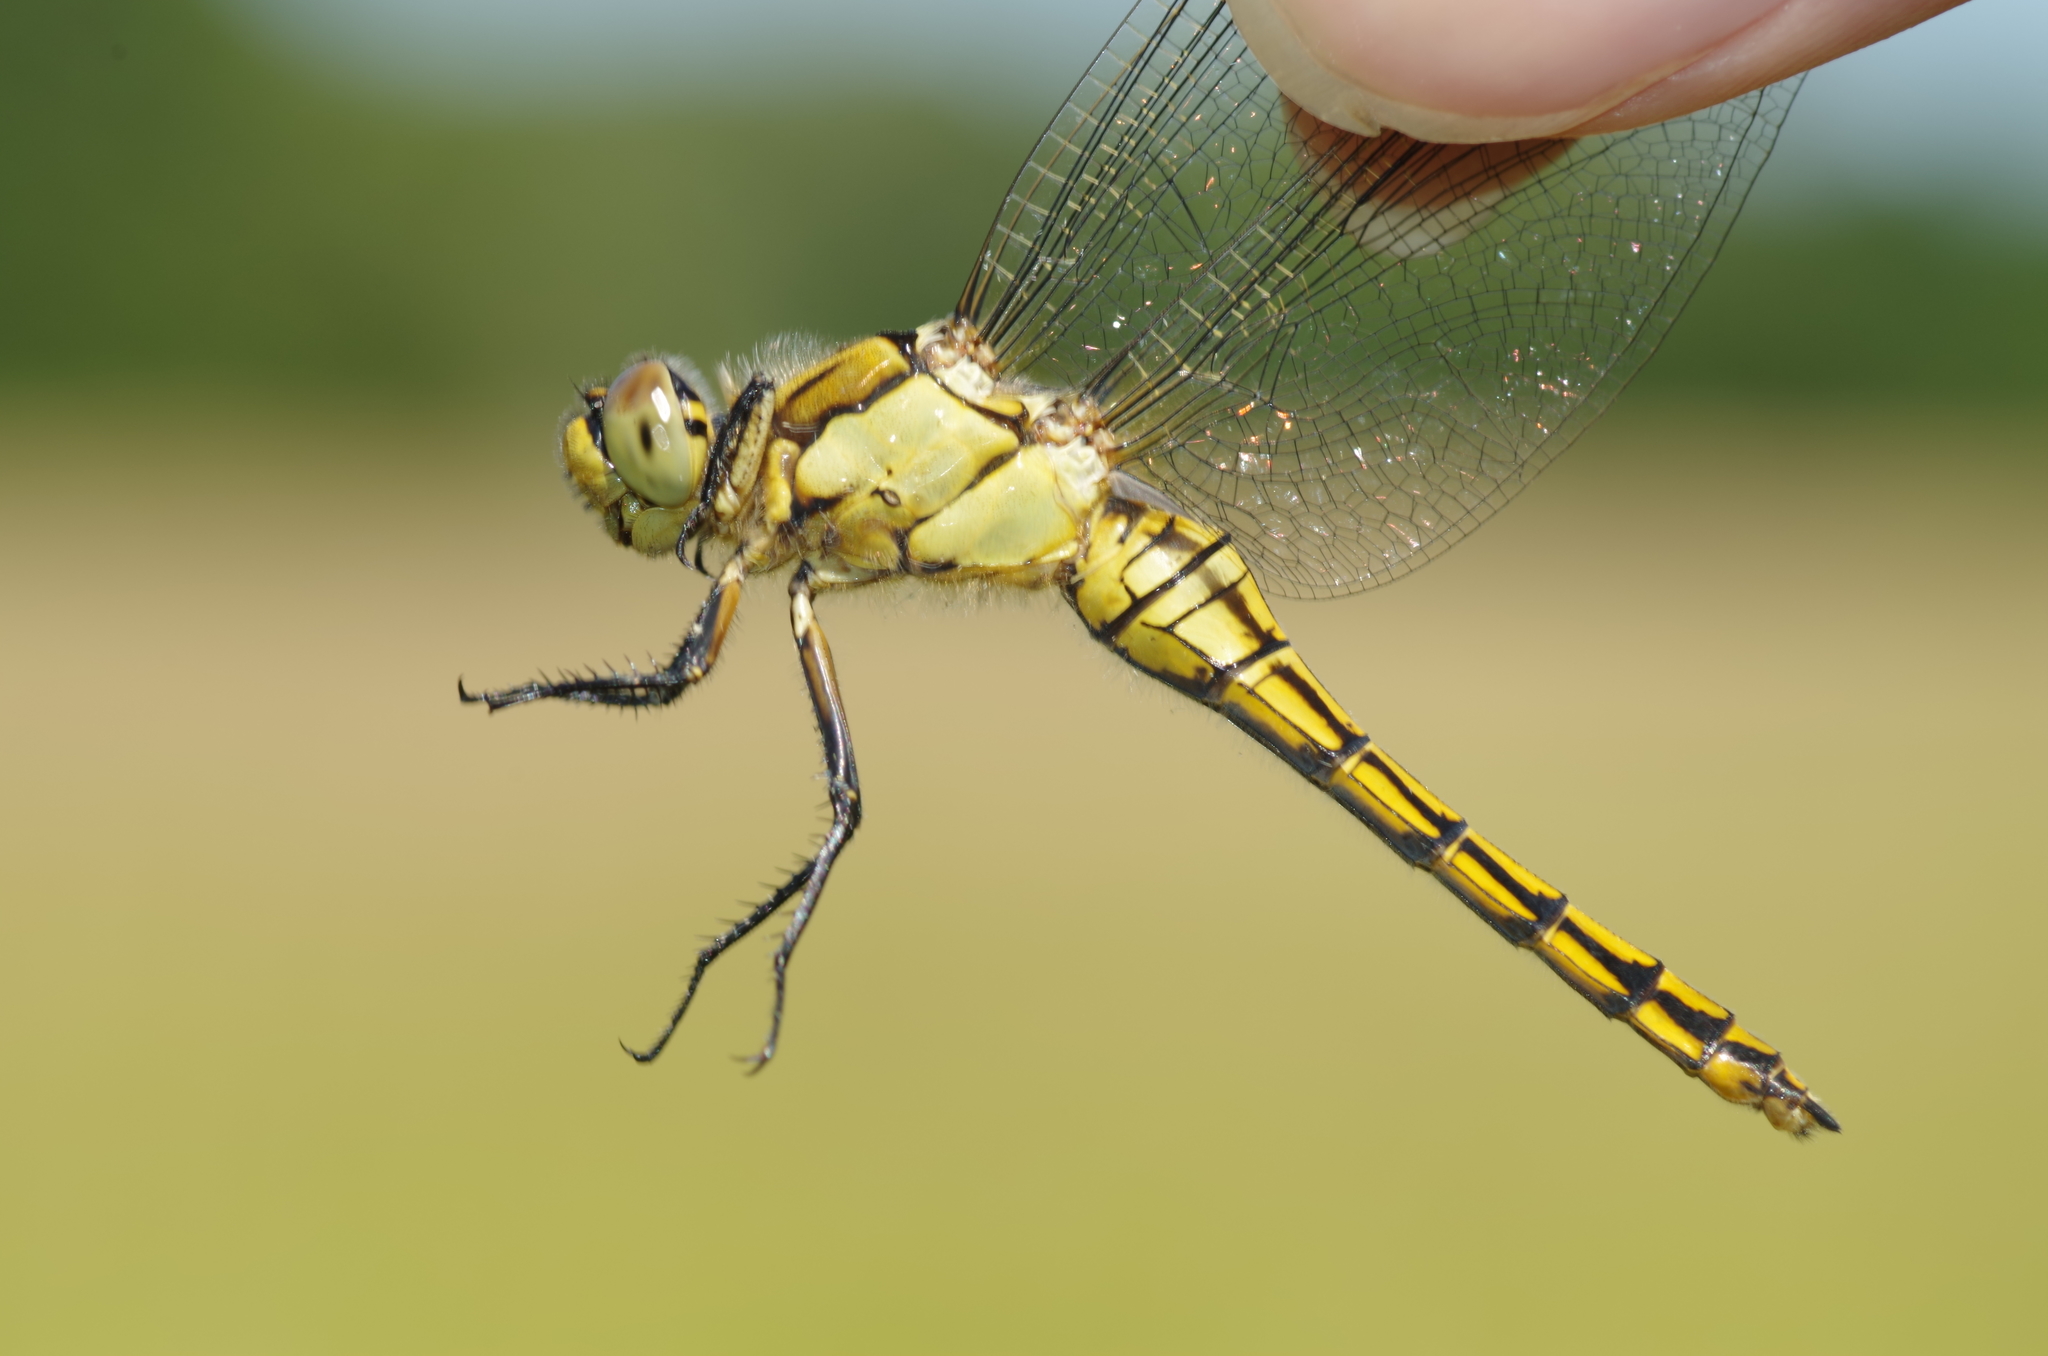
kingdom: Animalia
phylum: Arthropoda
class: Insecta
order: Odonata
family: Libellulidae
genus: Orthetrum
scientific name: Orthetrum cancellatum
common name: Black-tailed skimmer
